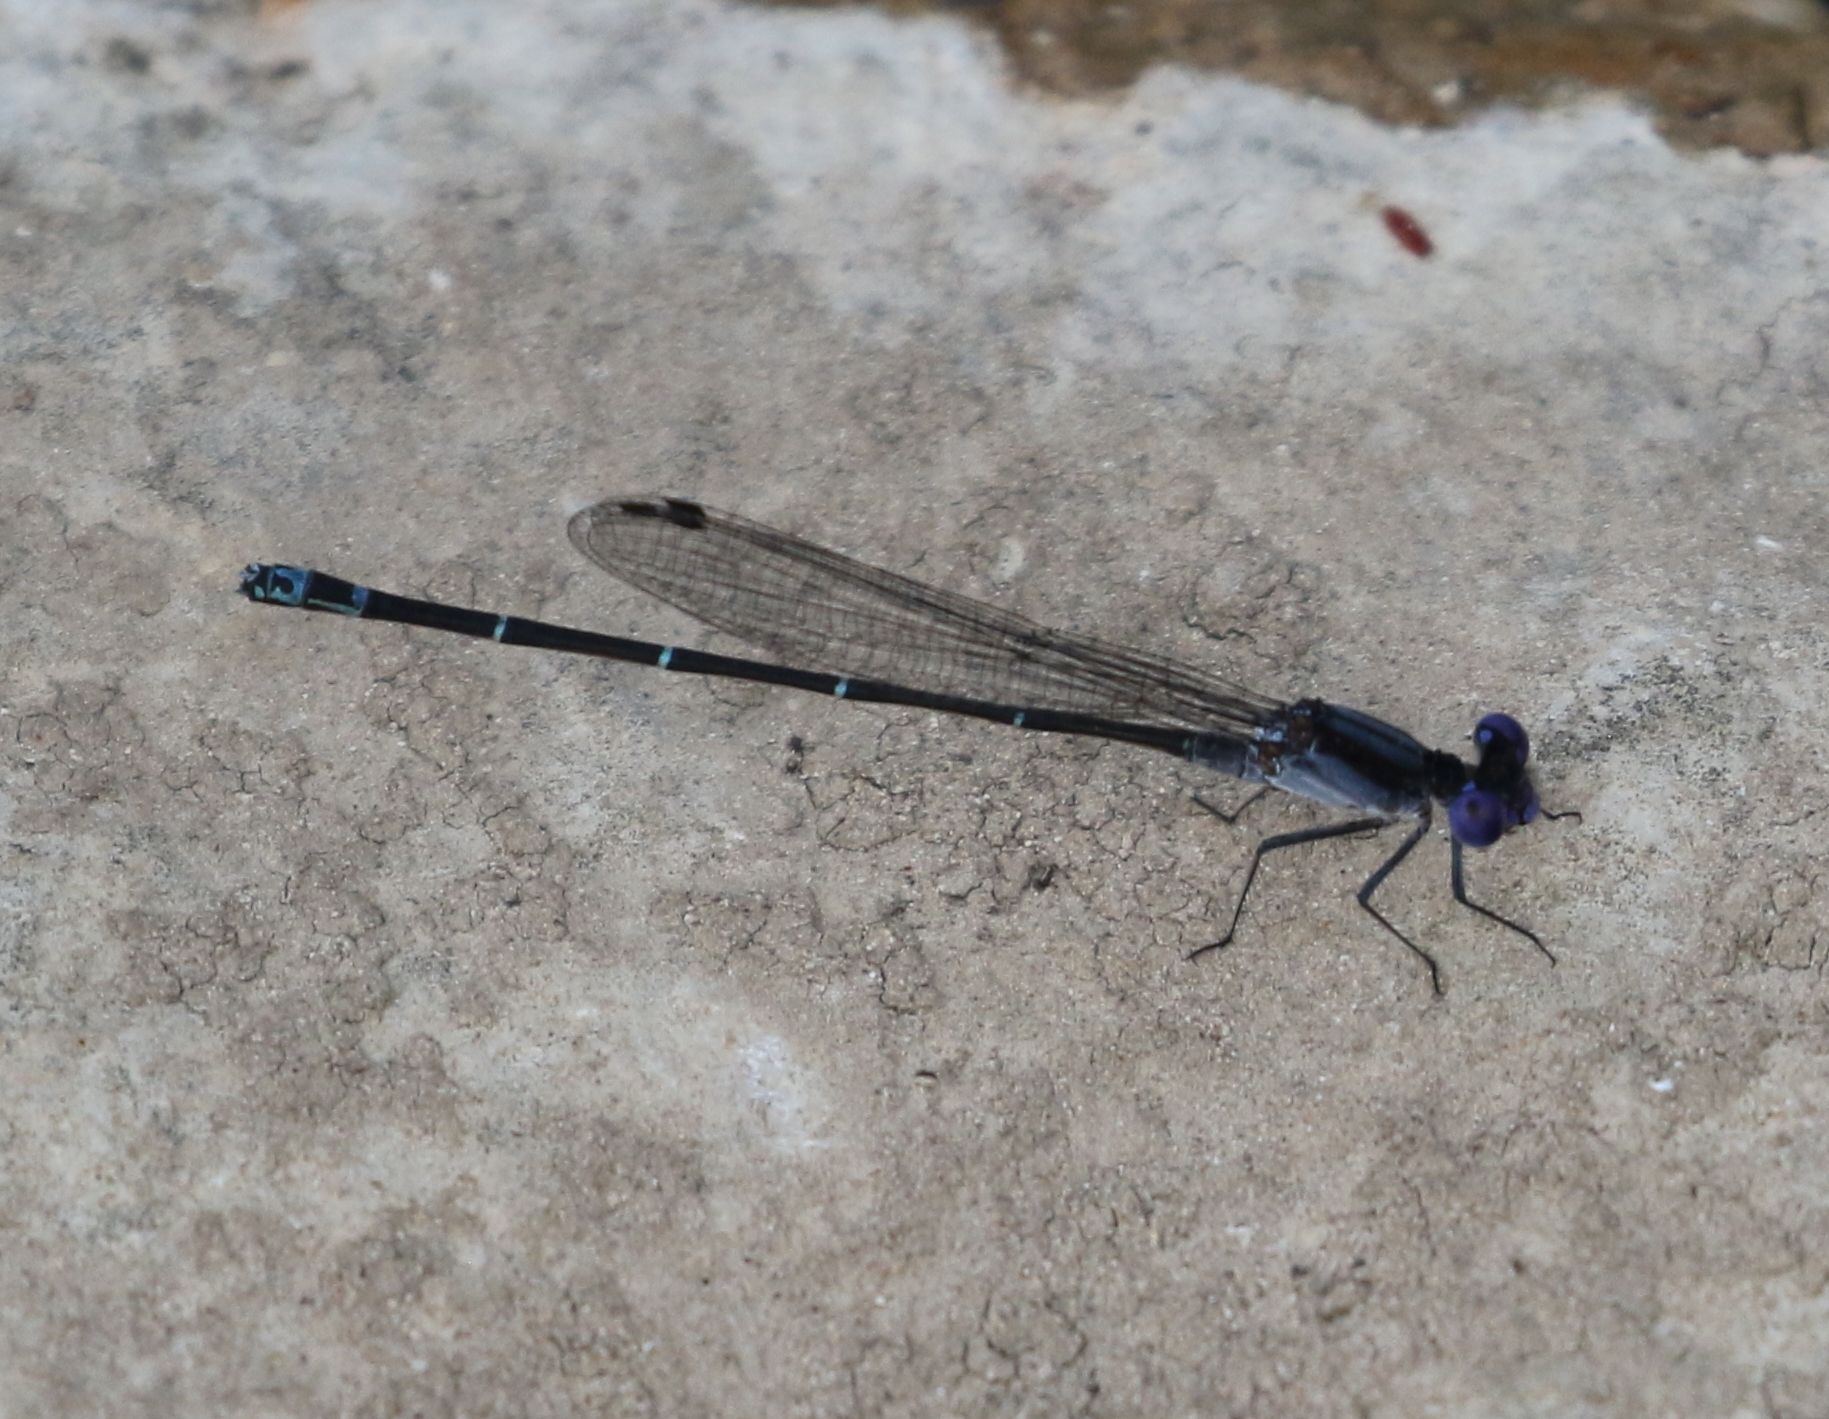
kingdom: Animalia
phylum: Arthropoda
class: Insecta
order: Odonata
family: Coenagrionidae
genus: Argia
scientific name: Argia translata
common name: Dusky dancer
